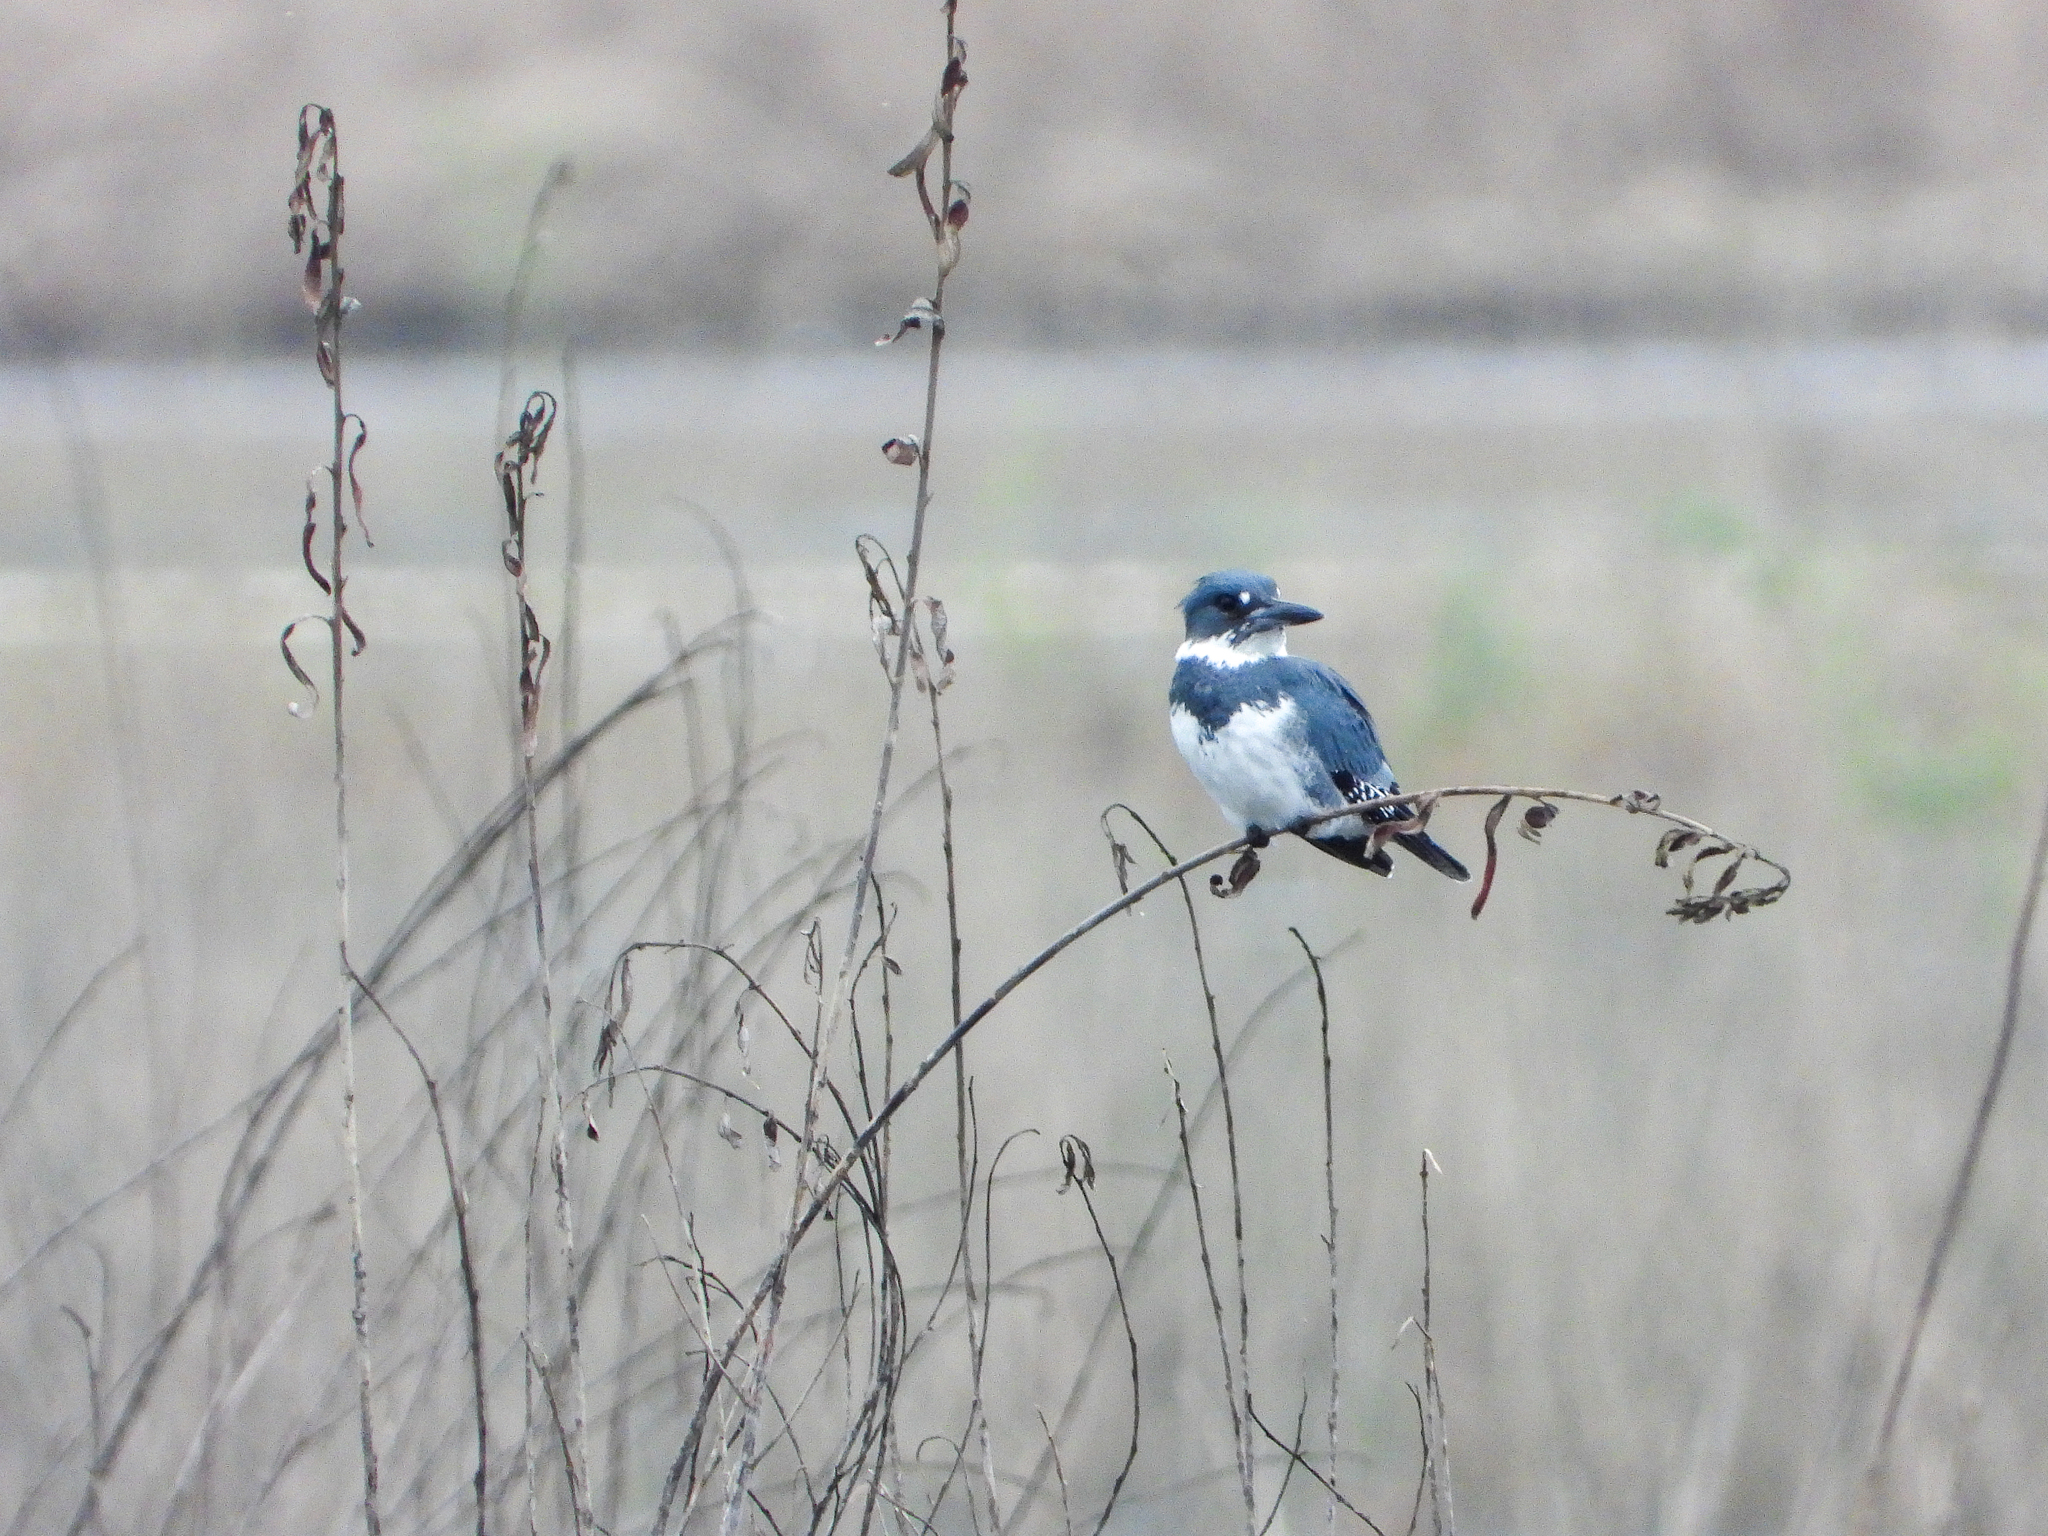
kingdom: Animalia
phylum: Chordata
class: Aves
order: Coraciiformes
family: Alcedinidae
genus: Megaceryle
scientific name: Megaceryle alcyon
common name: Belted kingfisher
